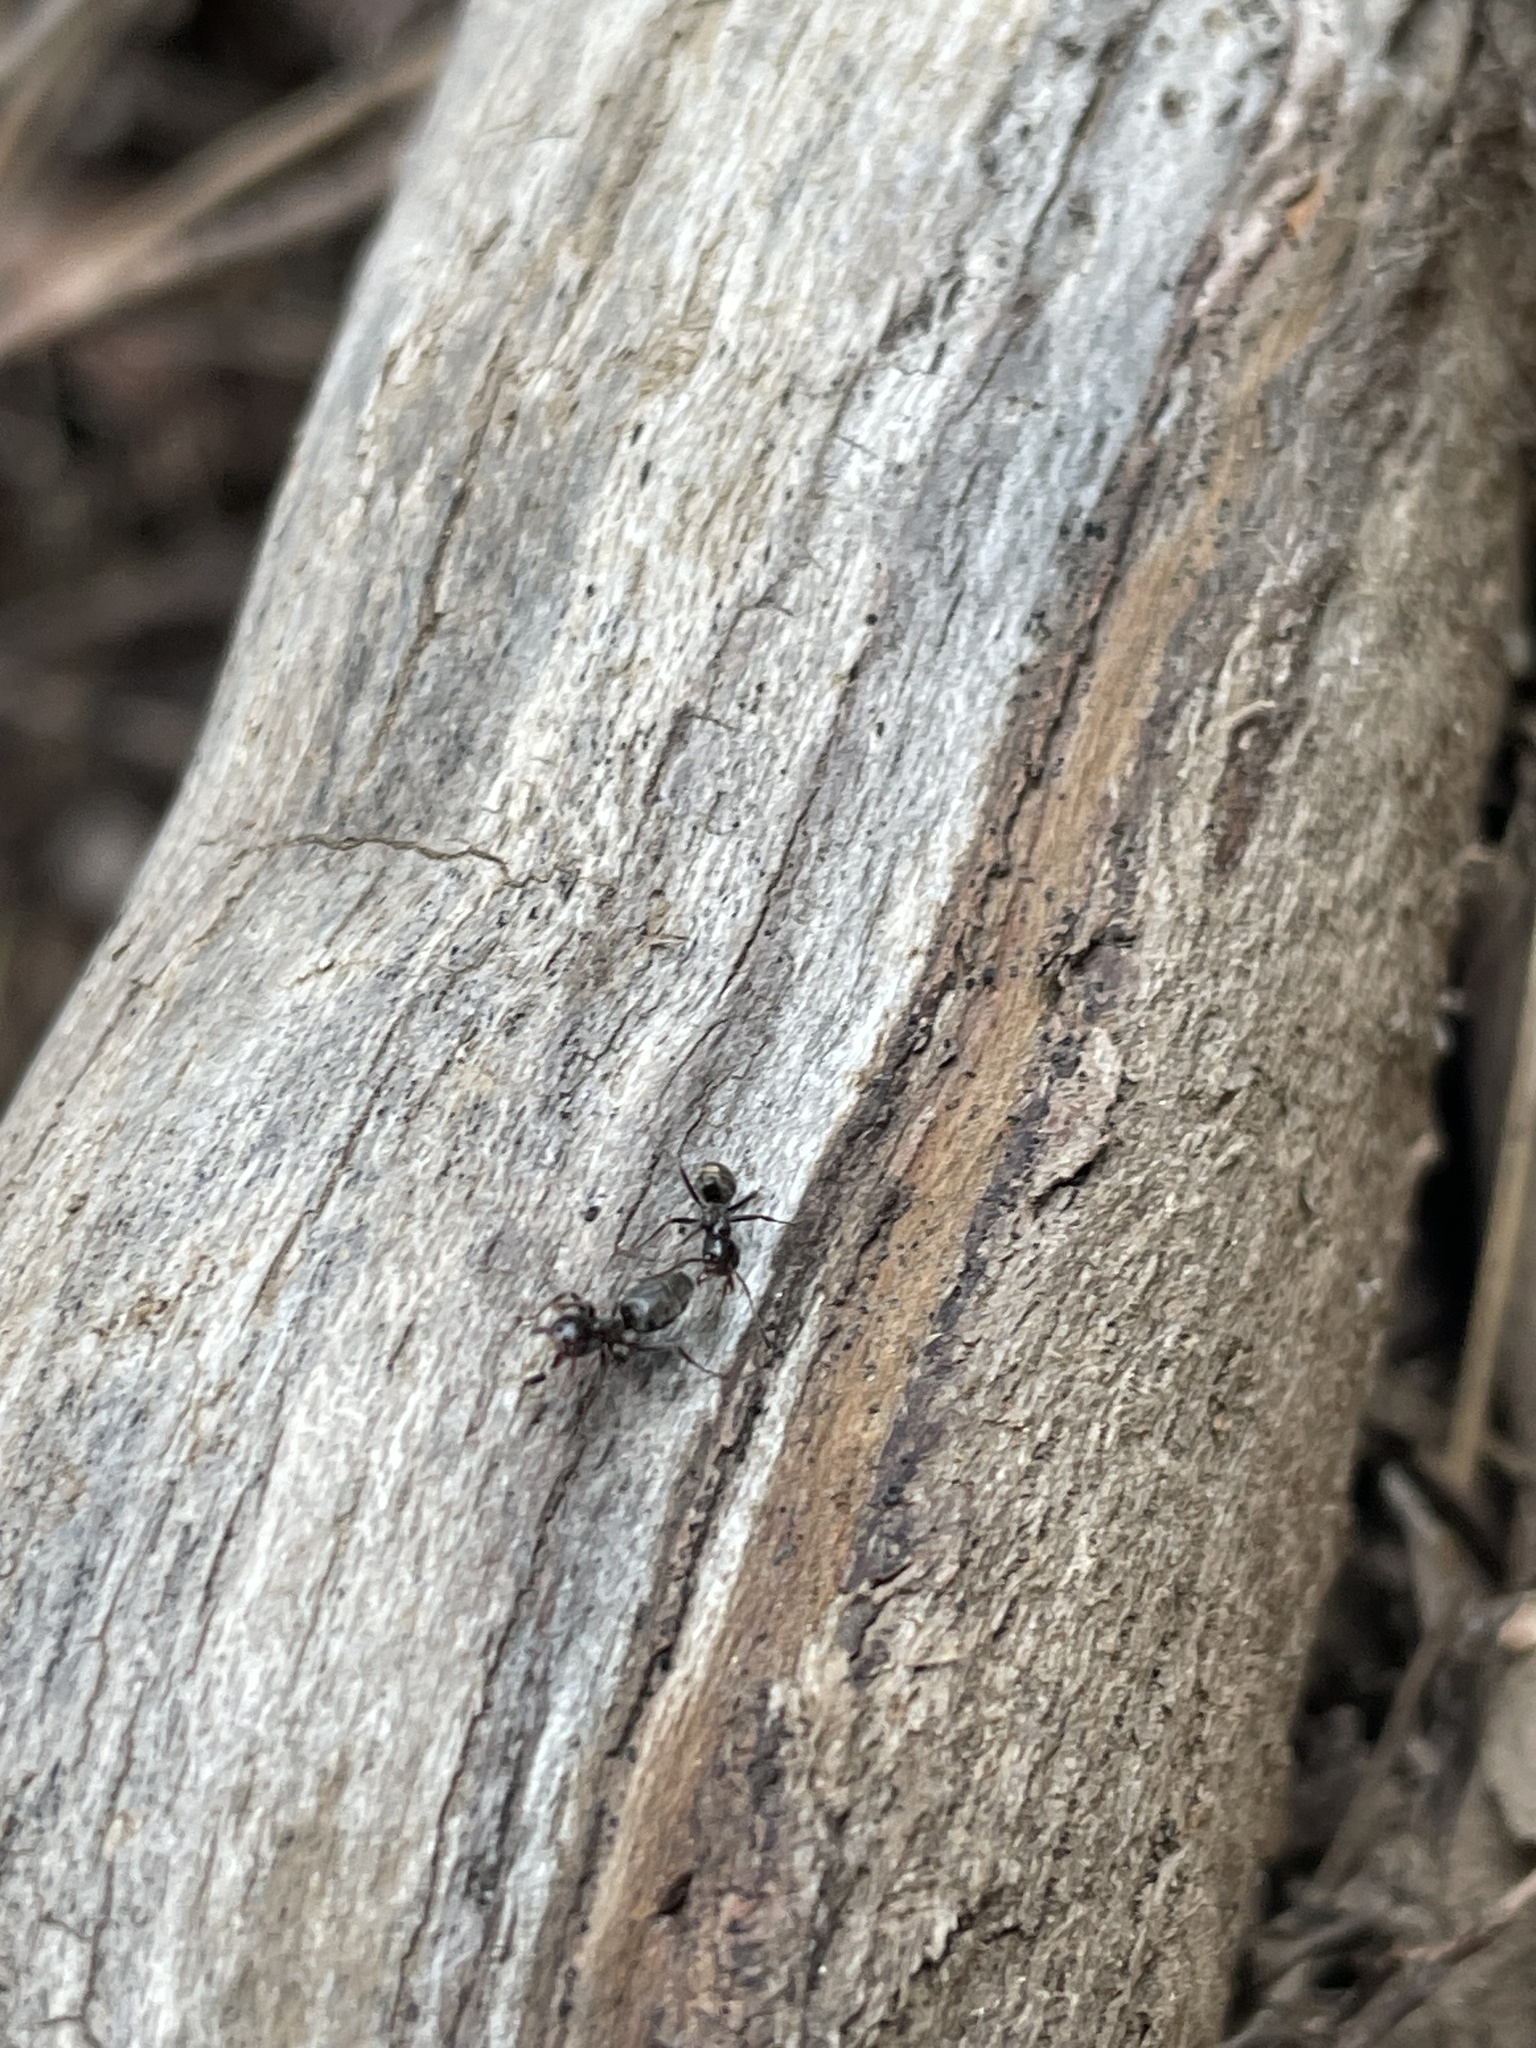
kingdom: Animalia
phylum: Arthropoda
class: Insecta
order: Hymenoptera
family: Formicidae
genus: Liometopum
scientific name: Liometopum luctuosum
